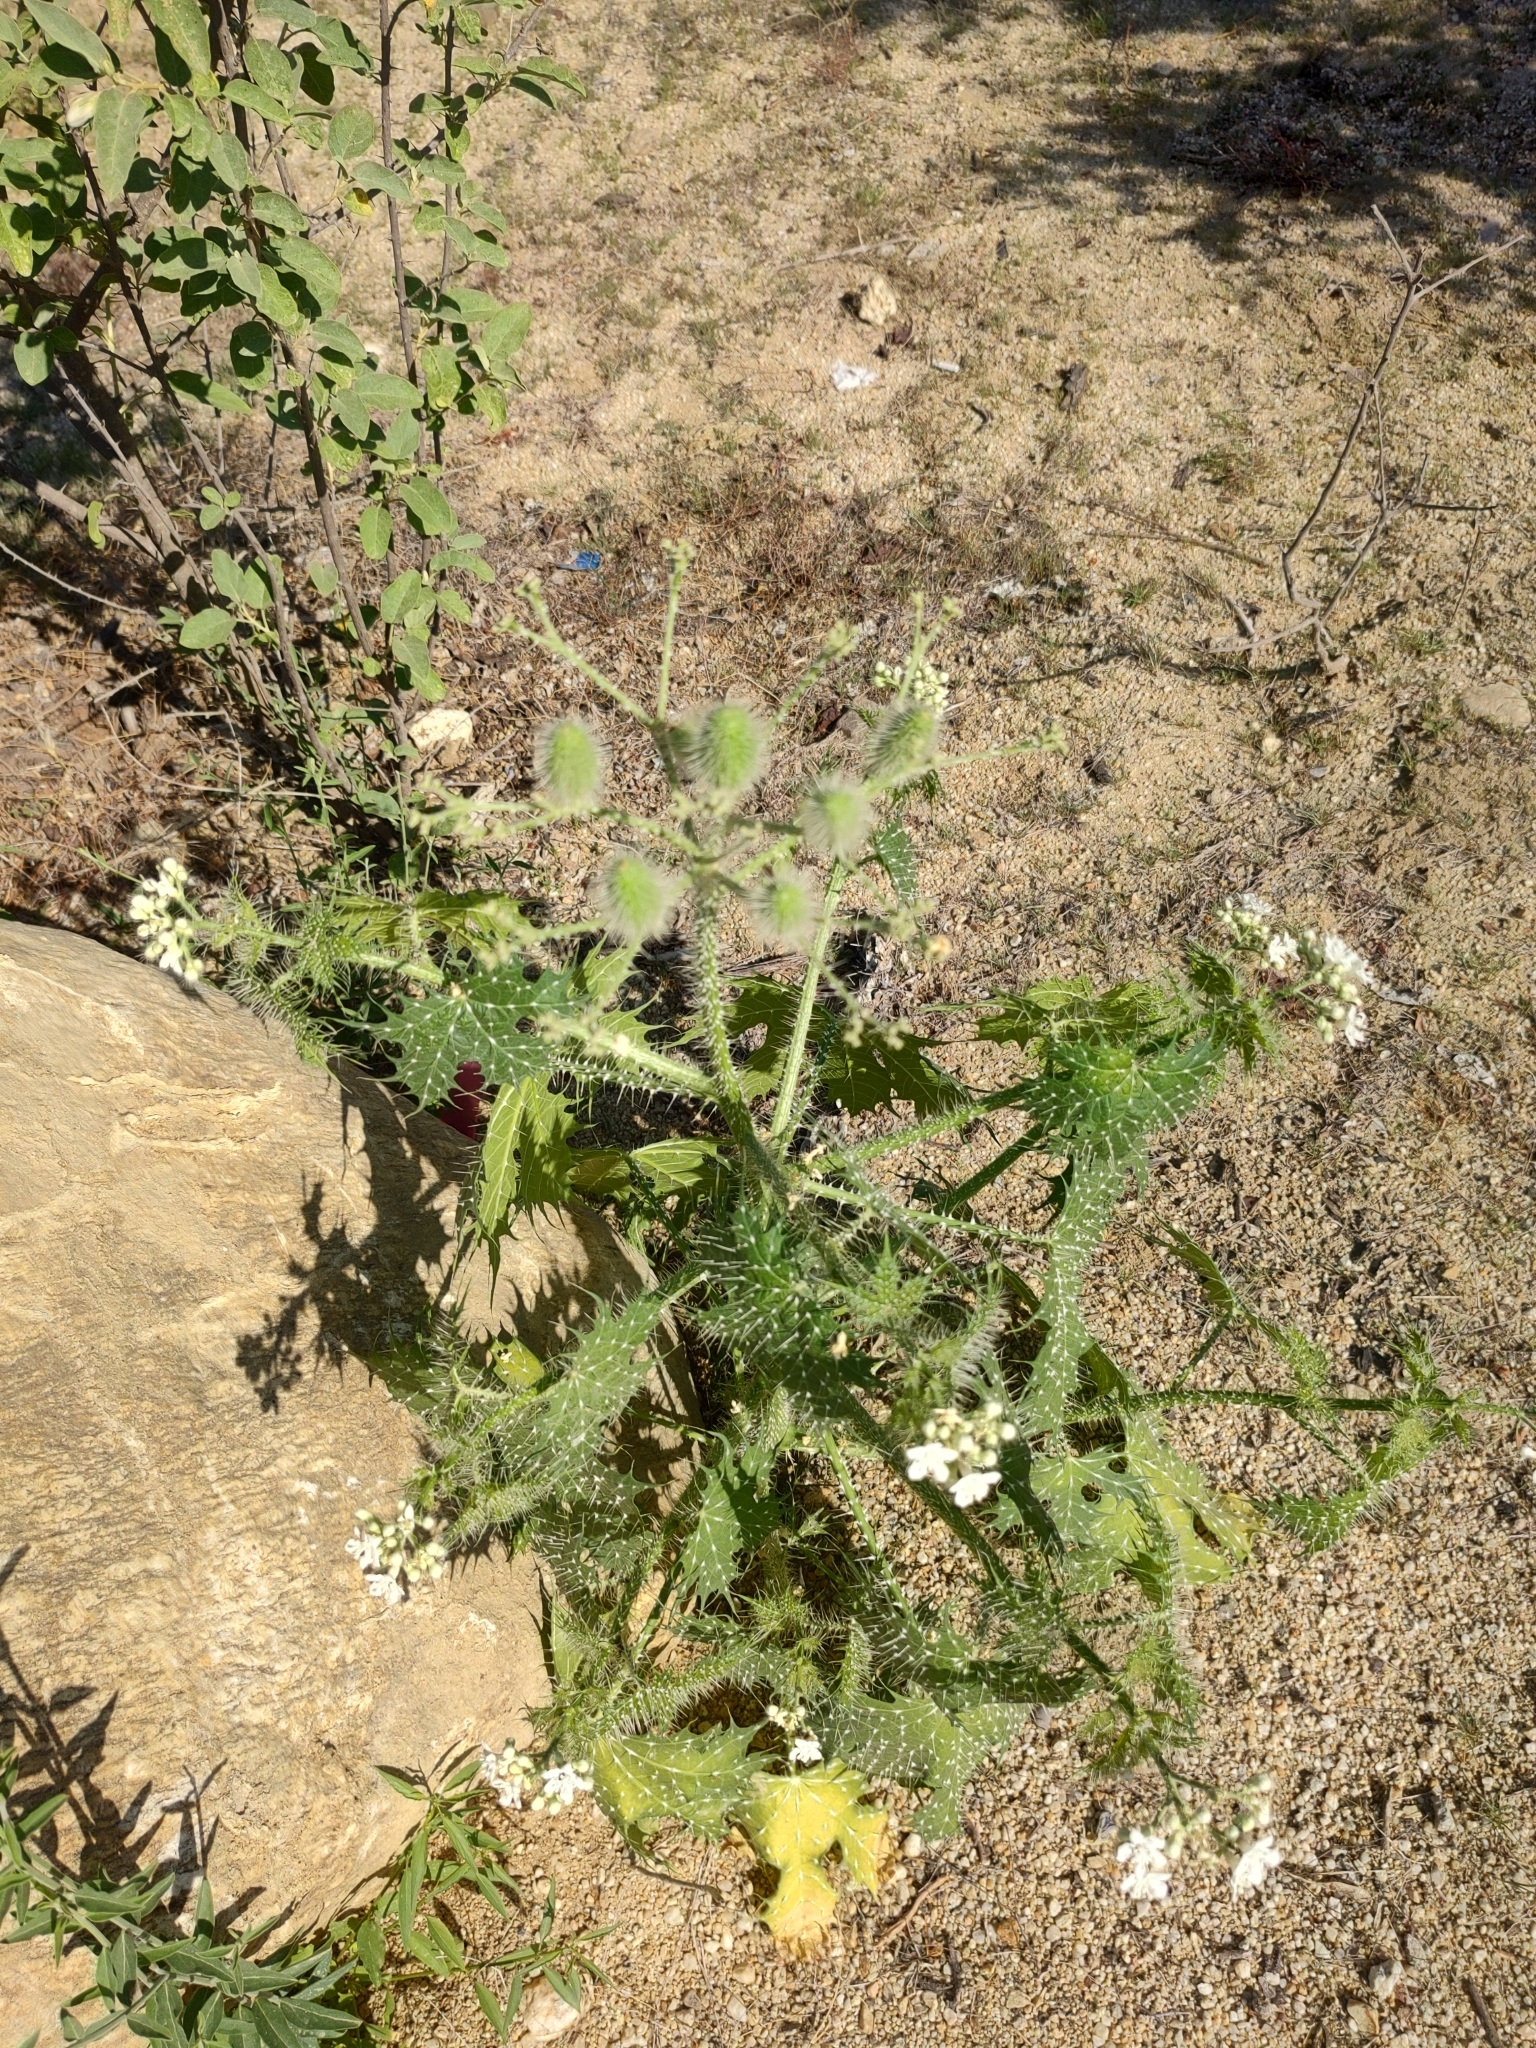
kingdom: Plantae
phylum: Tracheophyta
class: Magnoliopsida
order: Malpighiales
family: Euphorbiaceae
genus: Cnidoscolus
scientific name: Cnidoscolus maculatus
